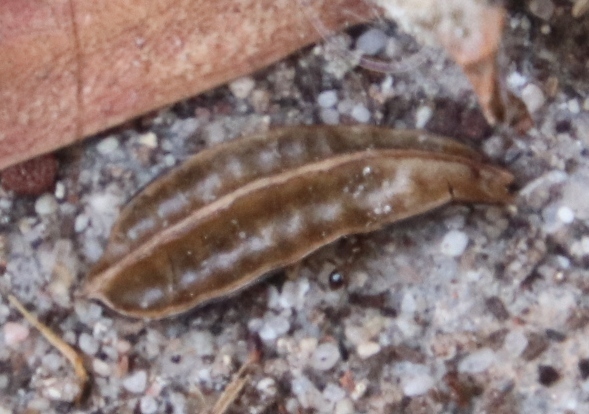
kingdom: Animalia
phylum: Arthropoda
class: Insecta
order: Hymenoptera
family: Formicidae
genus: Pheidole
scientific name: Pheidole megacephala
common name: Bigheaded ant
